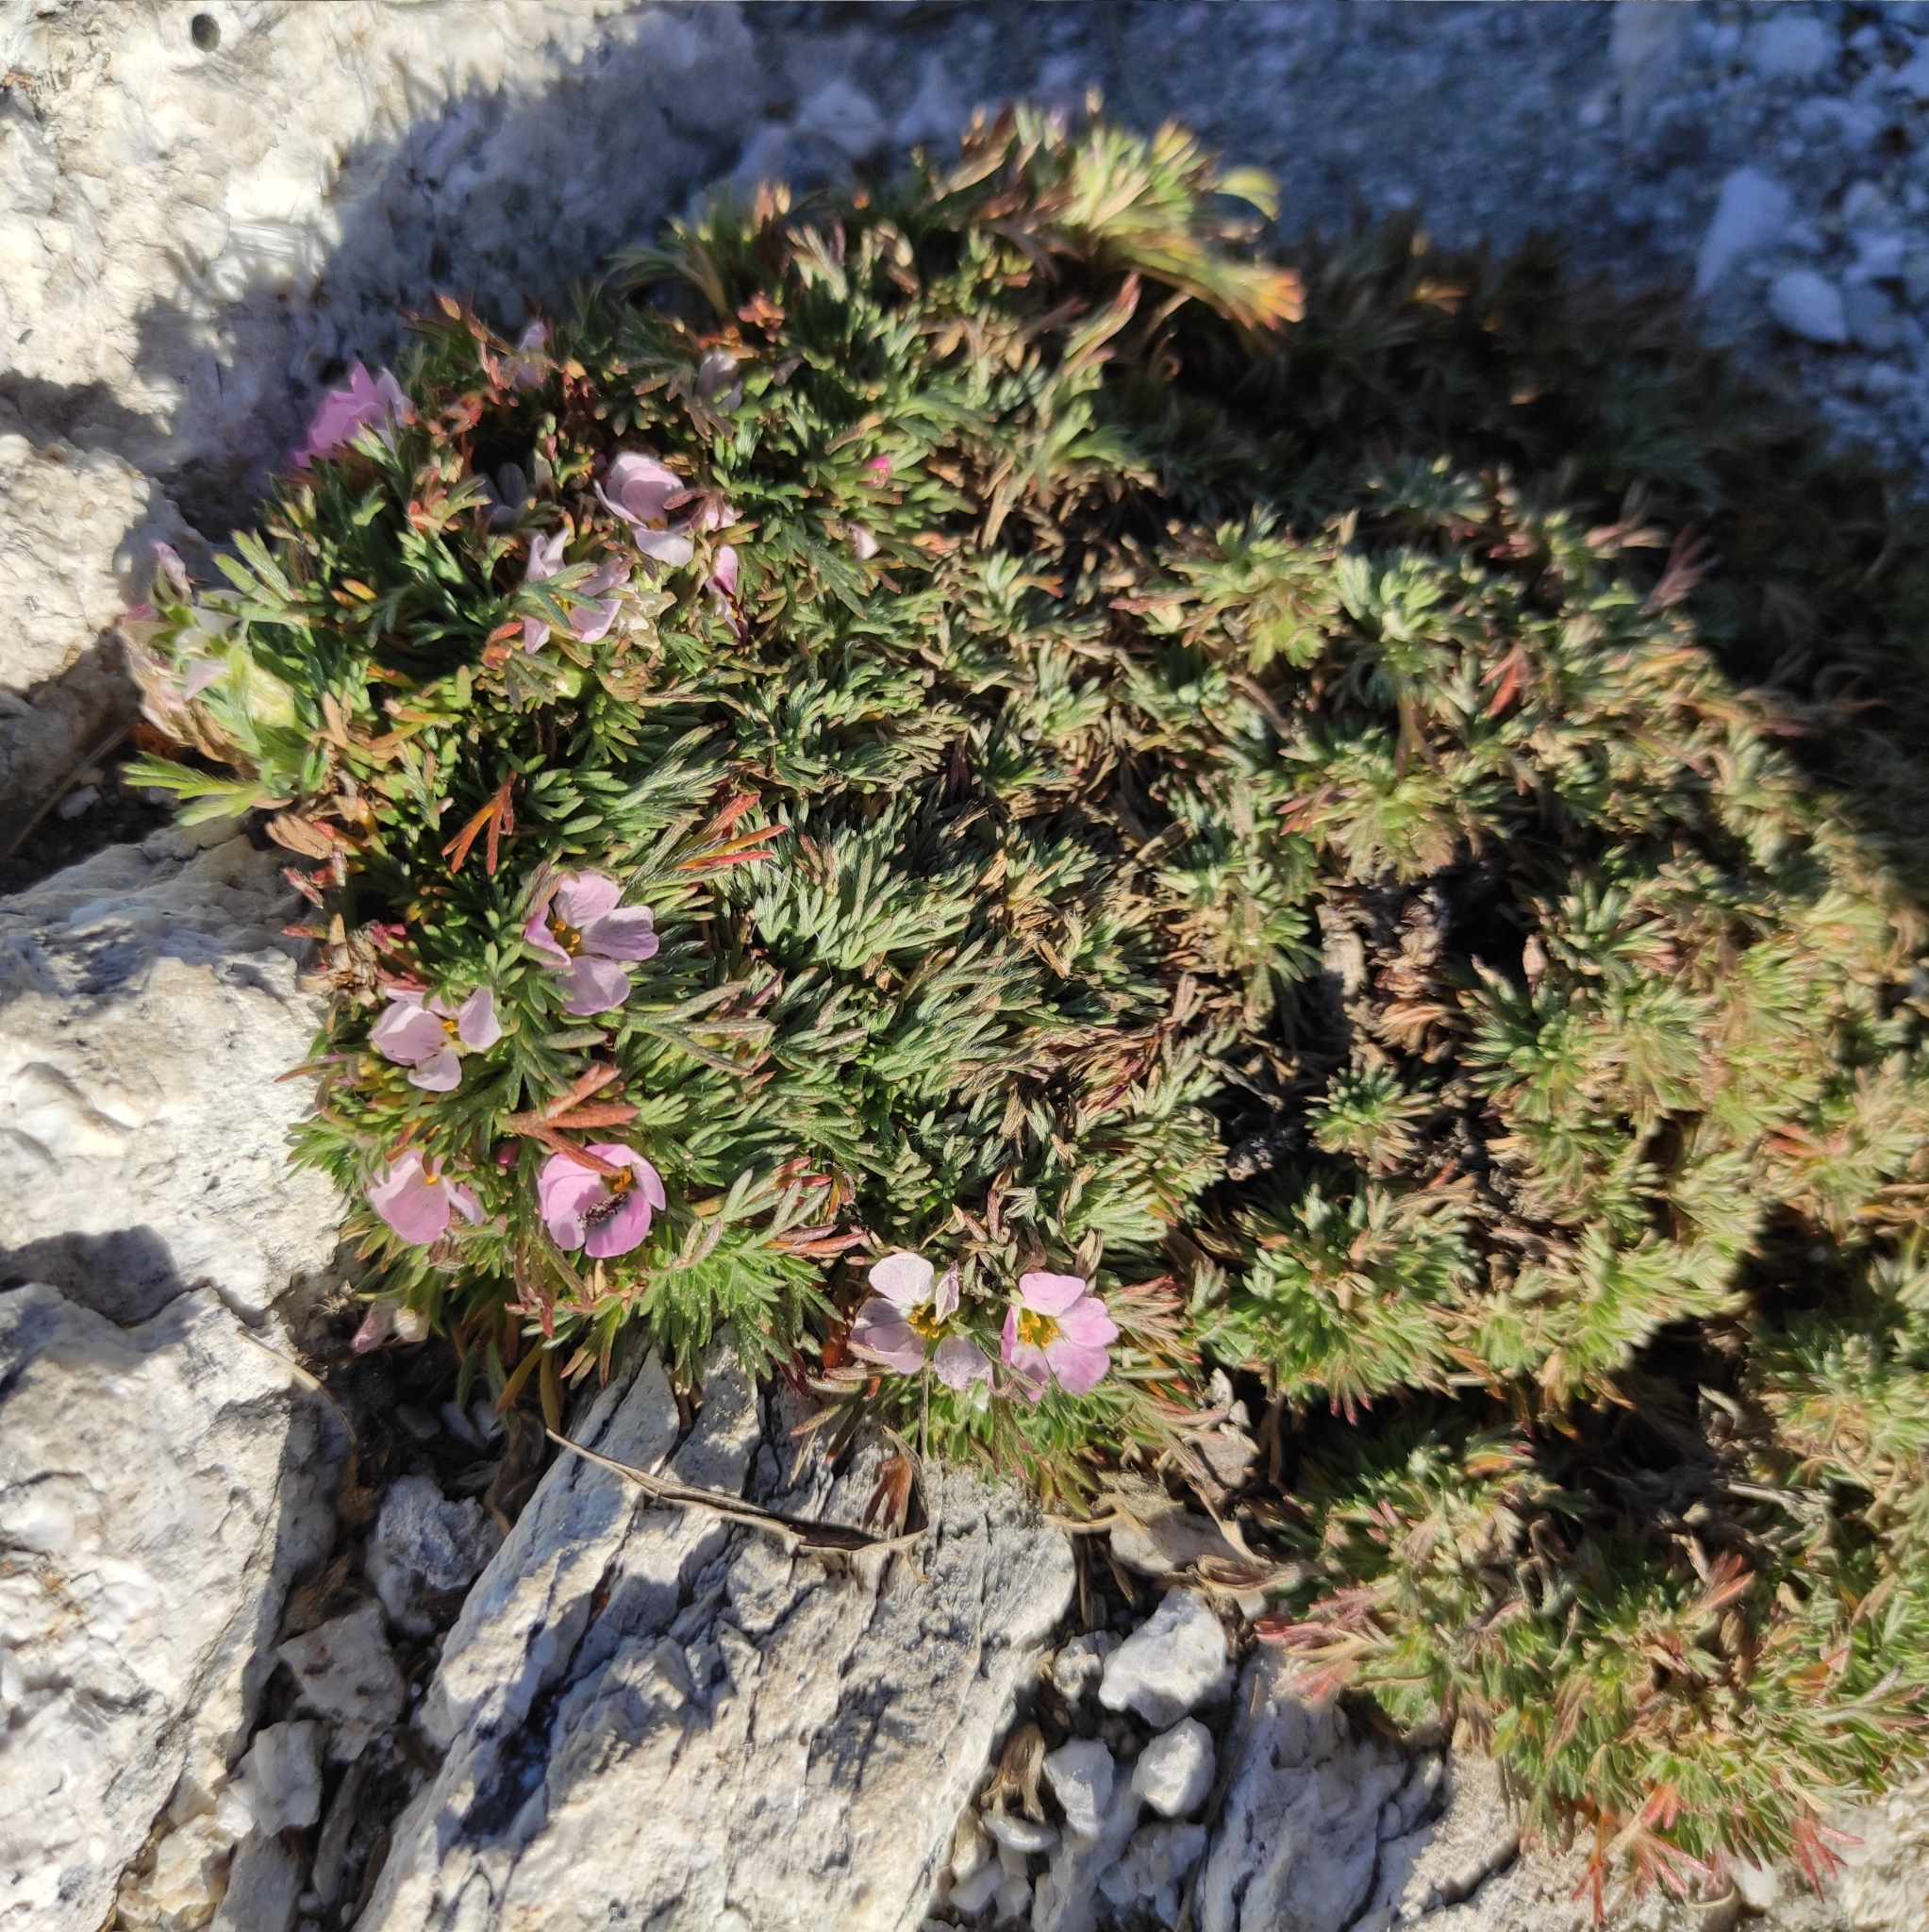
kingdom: Plantae
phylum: Tracheophyta
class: Magnoliopsida
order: Rosales
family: Rosaceae
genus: Chamaerhodos
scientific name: Chamaerhodos altaica
